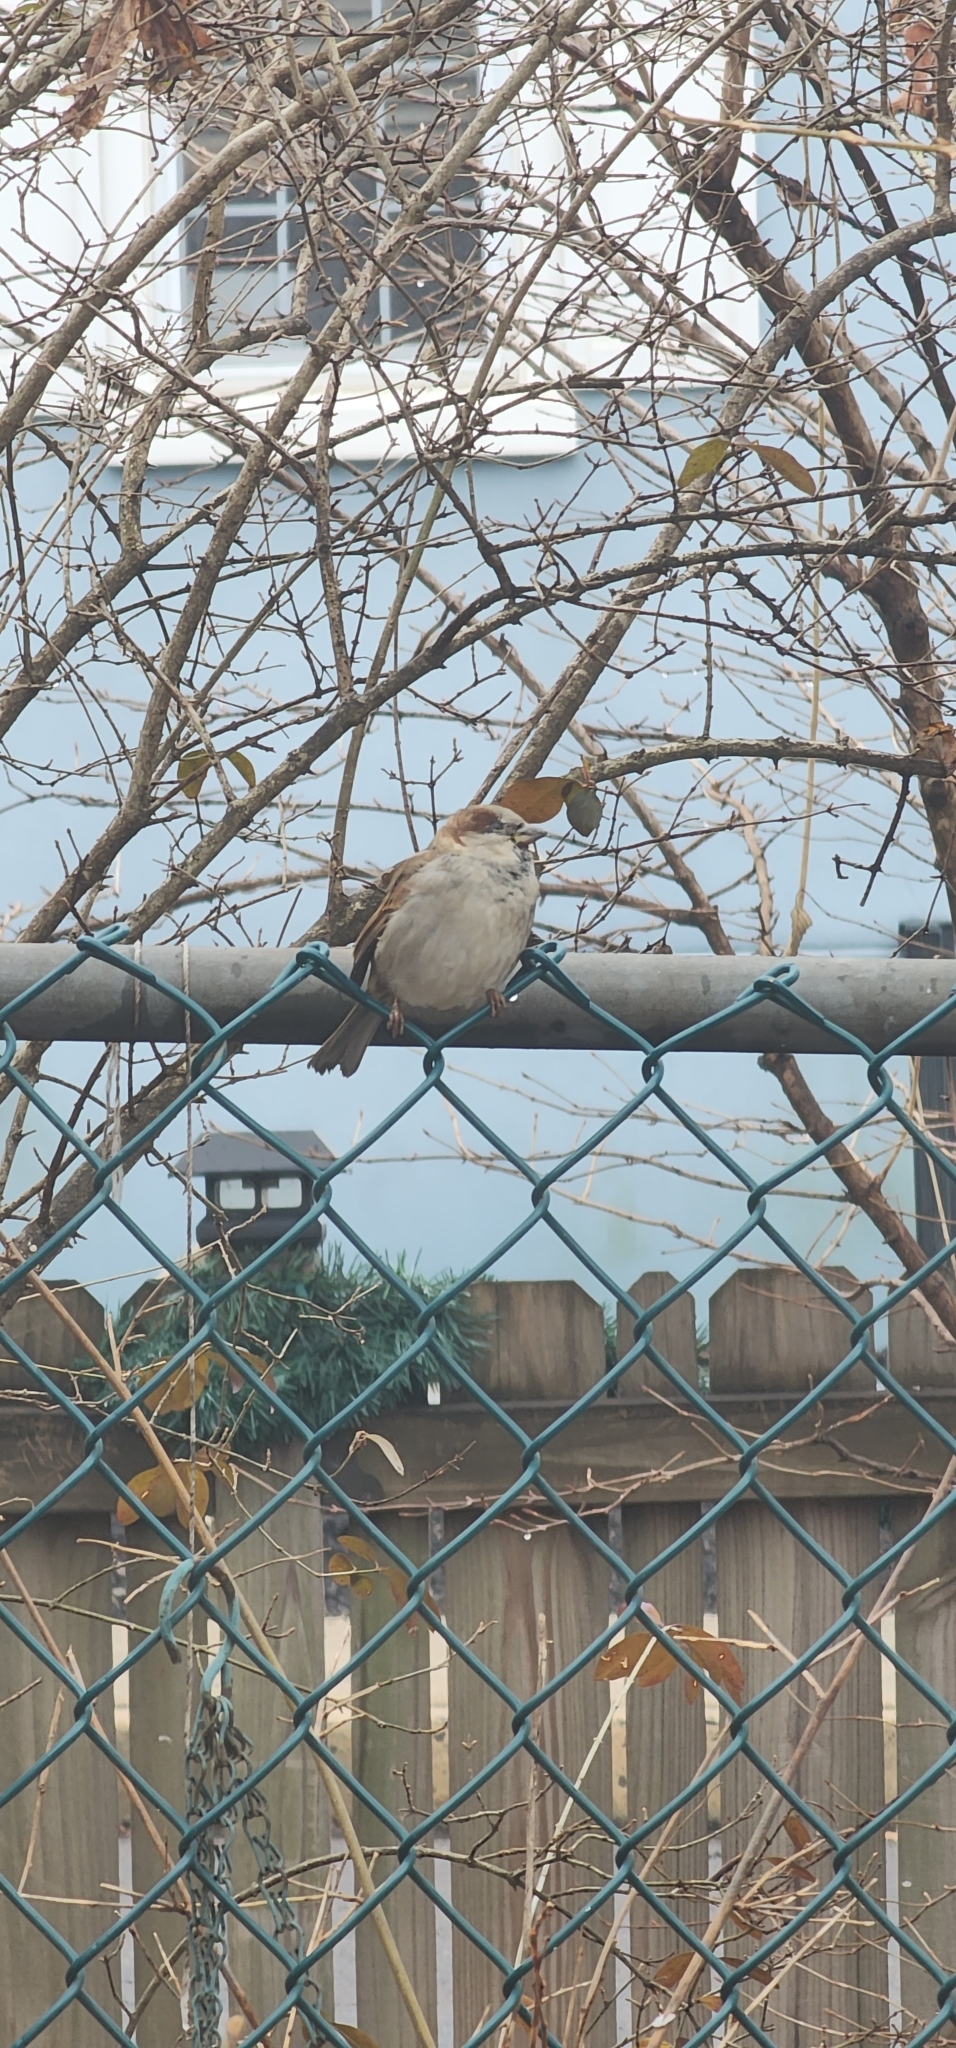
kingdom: Animalia
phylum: Chordata
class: Aves
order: Passeriformes
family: Passeridae
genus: Passer
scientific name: Passer domesticus
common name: House sparrow
